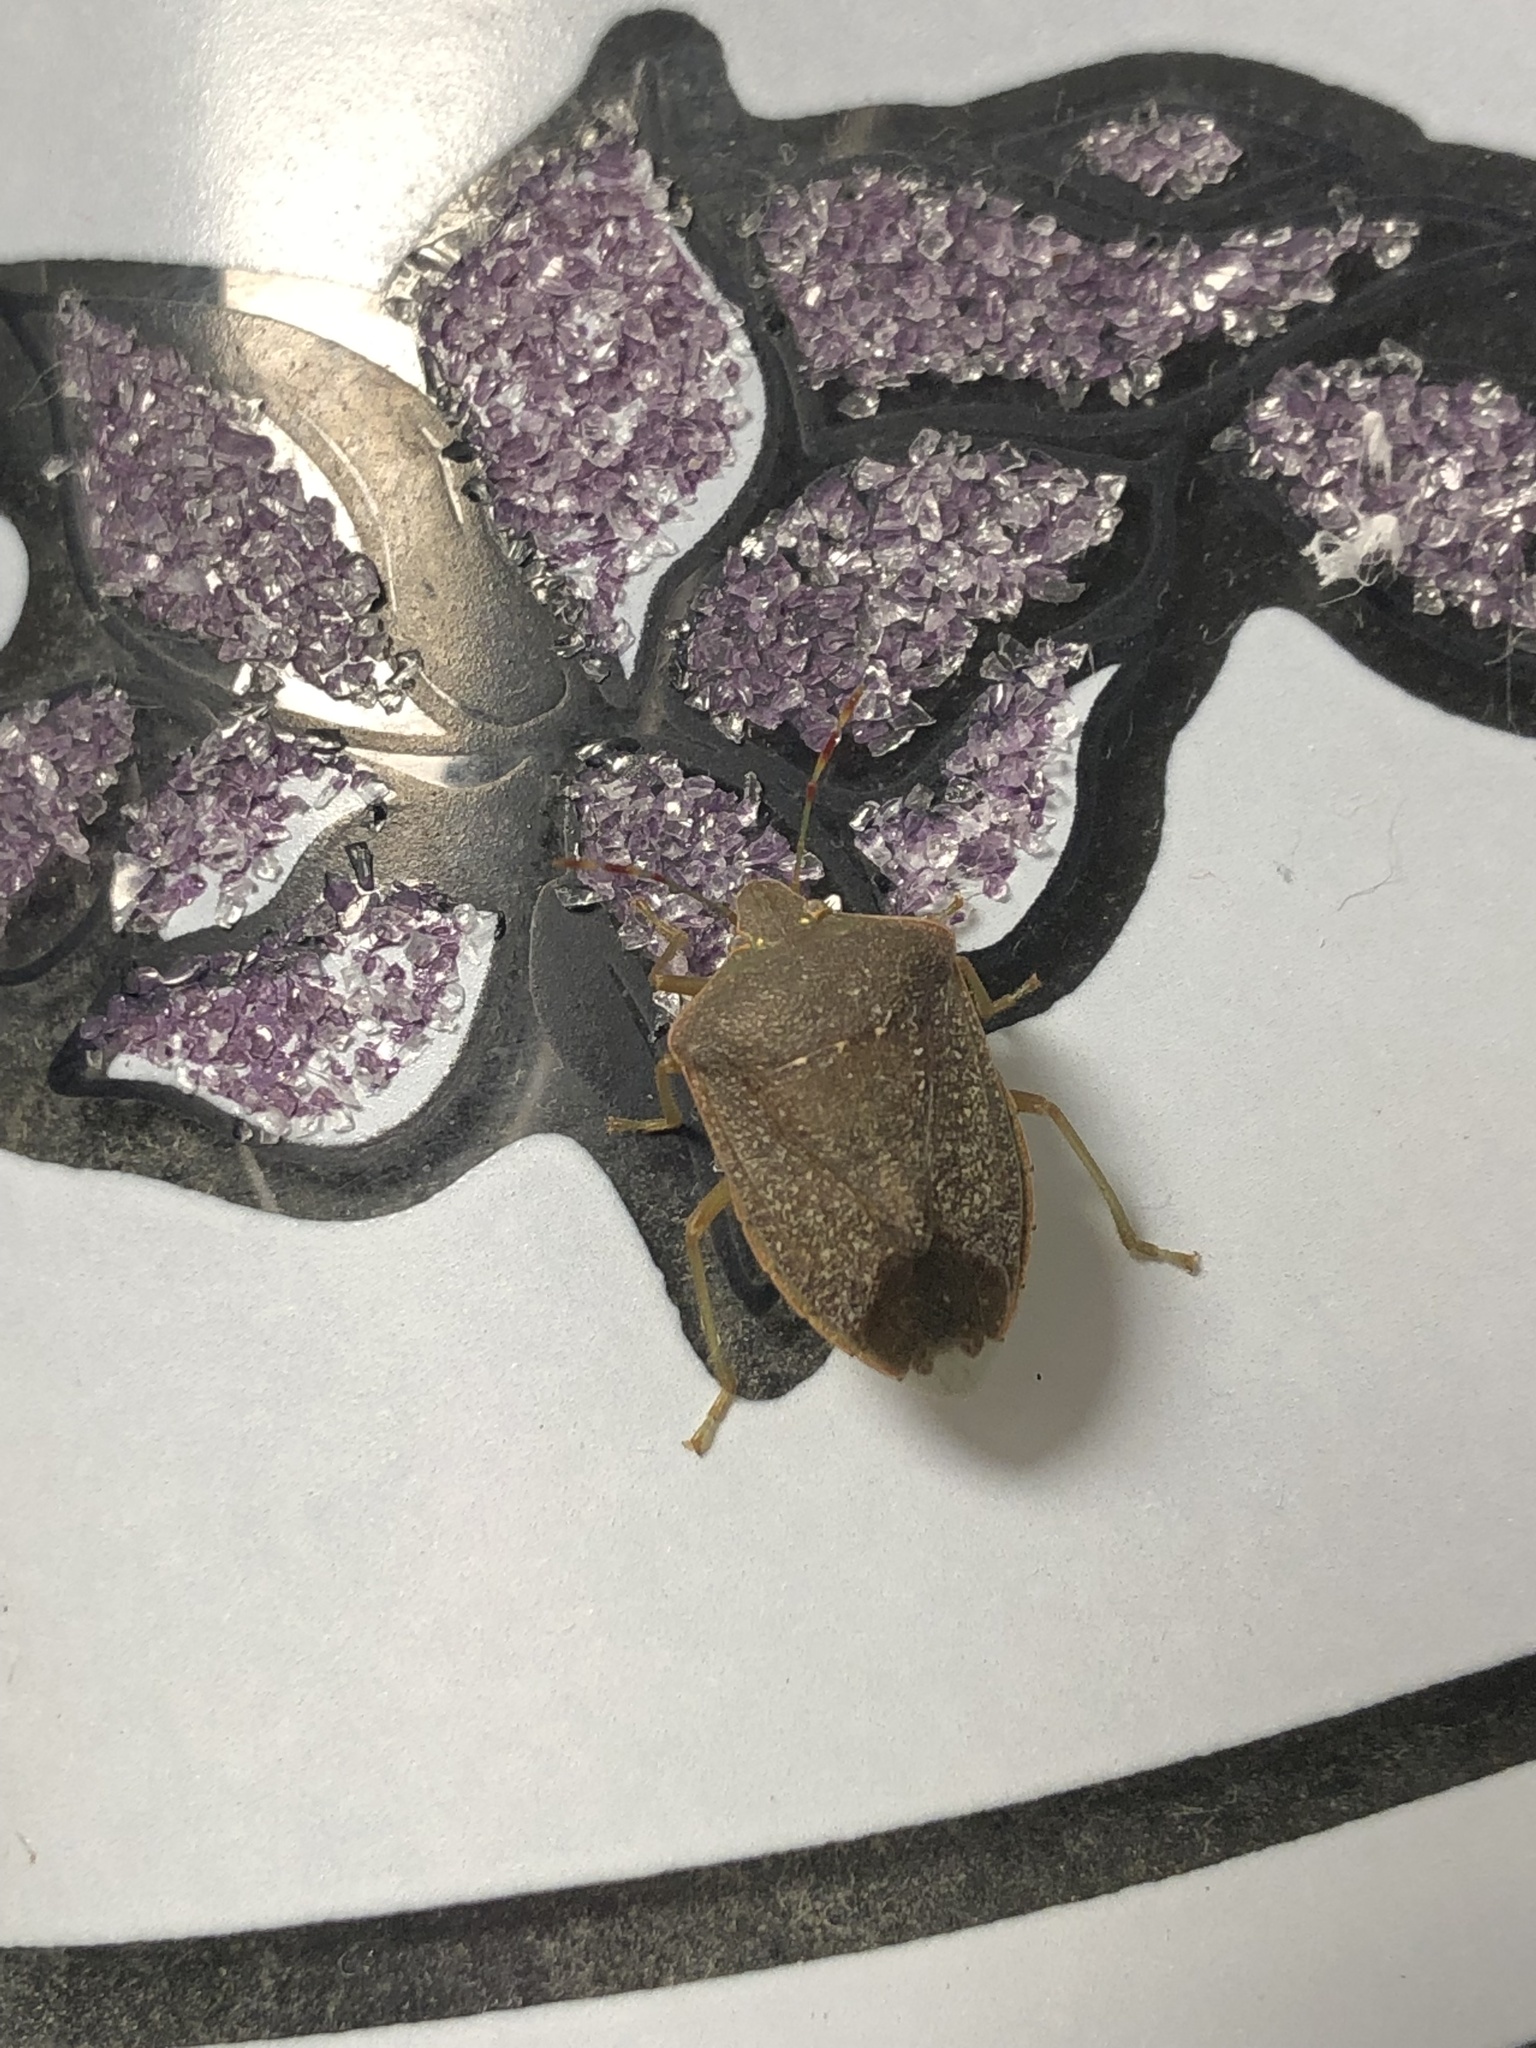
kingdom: Animalia
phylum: Arthropoda
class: Insecta
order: Hemiptera
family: Pentatomidae
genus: Nezara
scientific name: Nezara viridula
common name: Southern green stink bug
